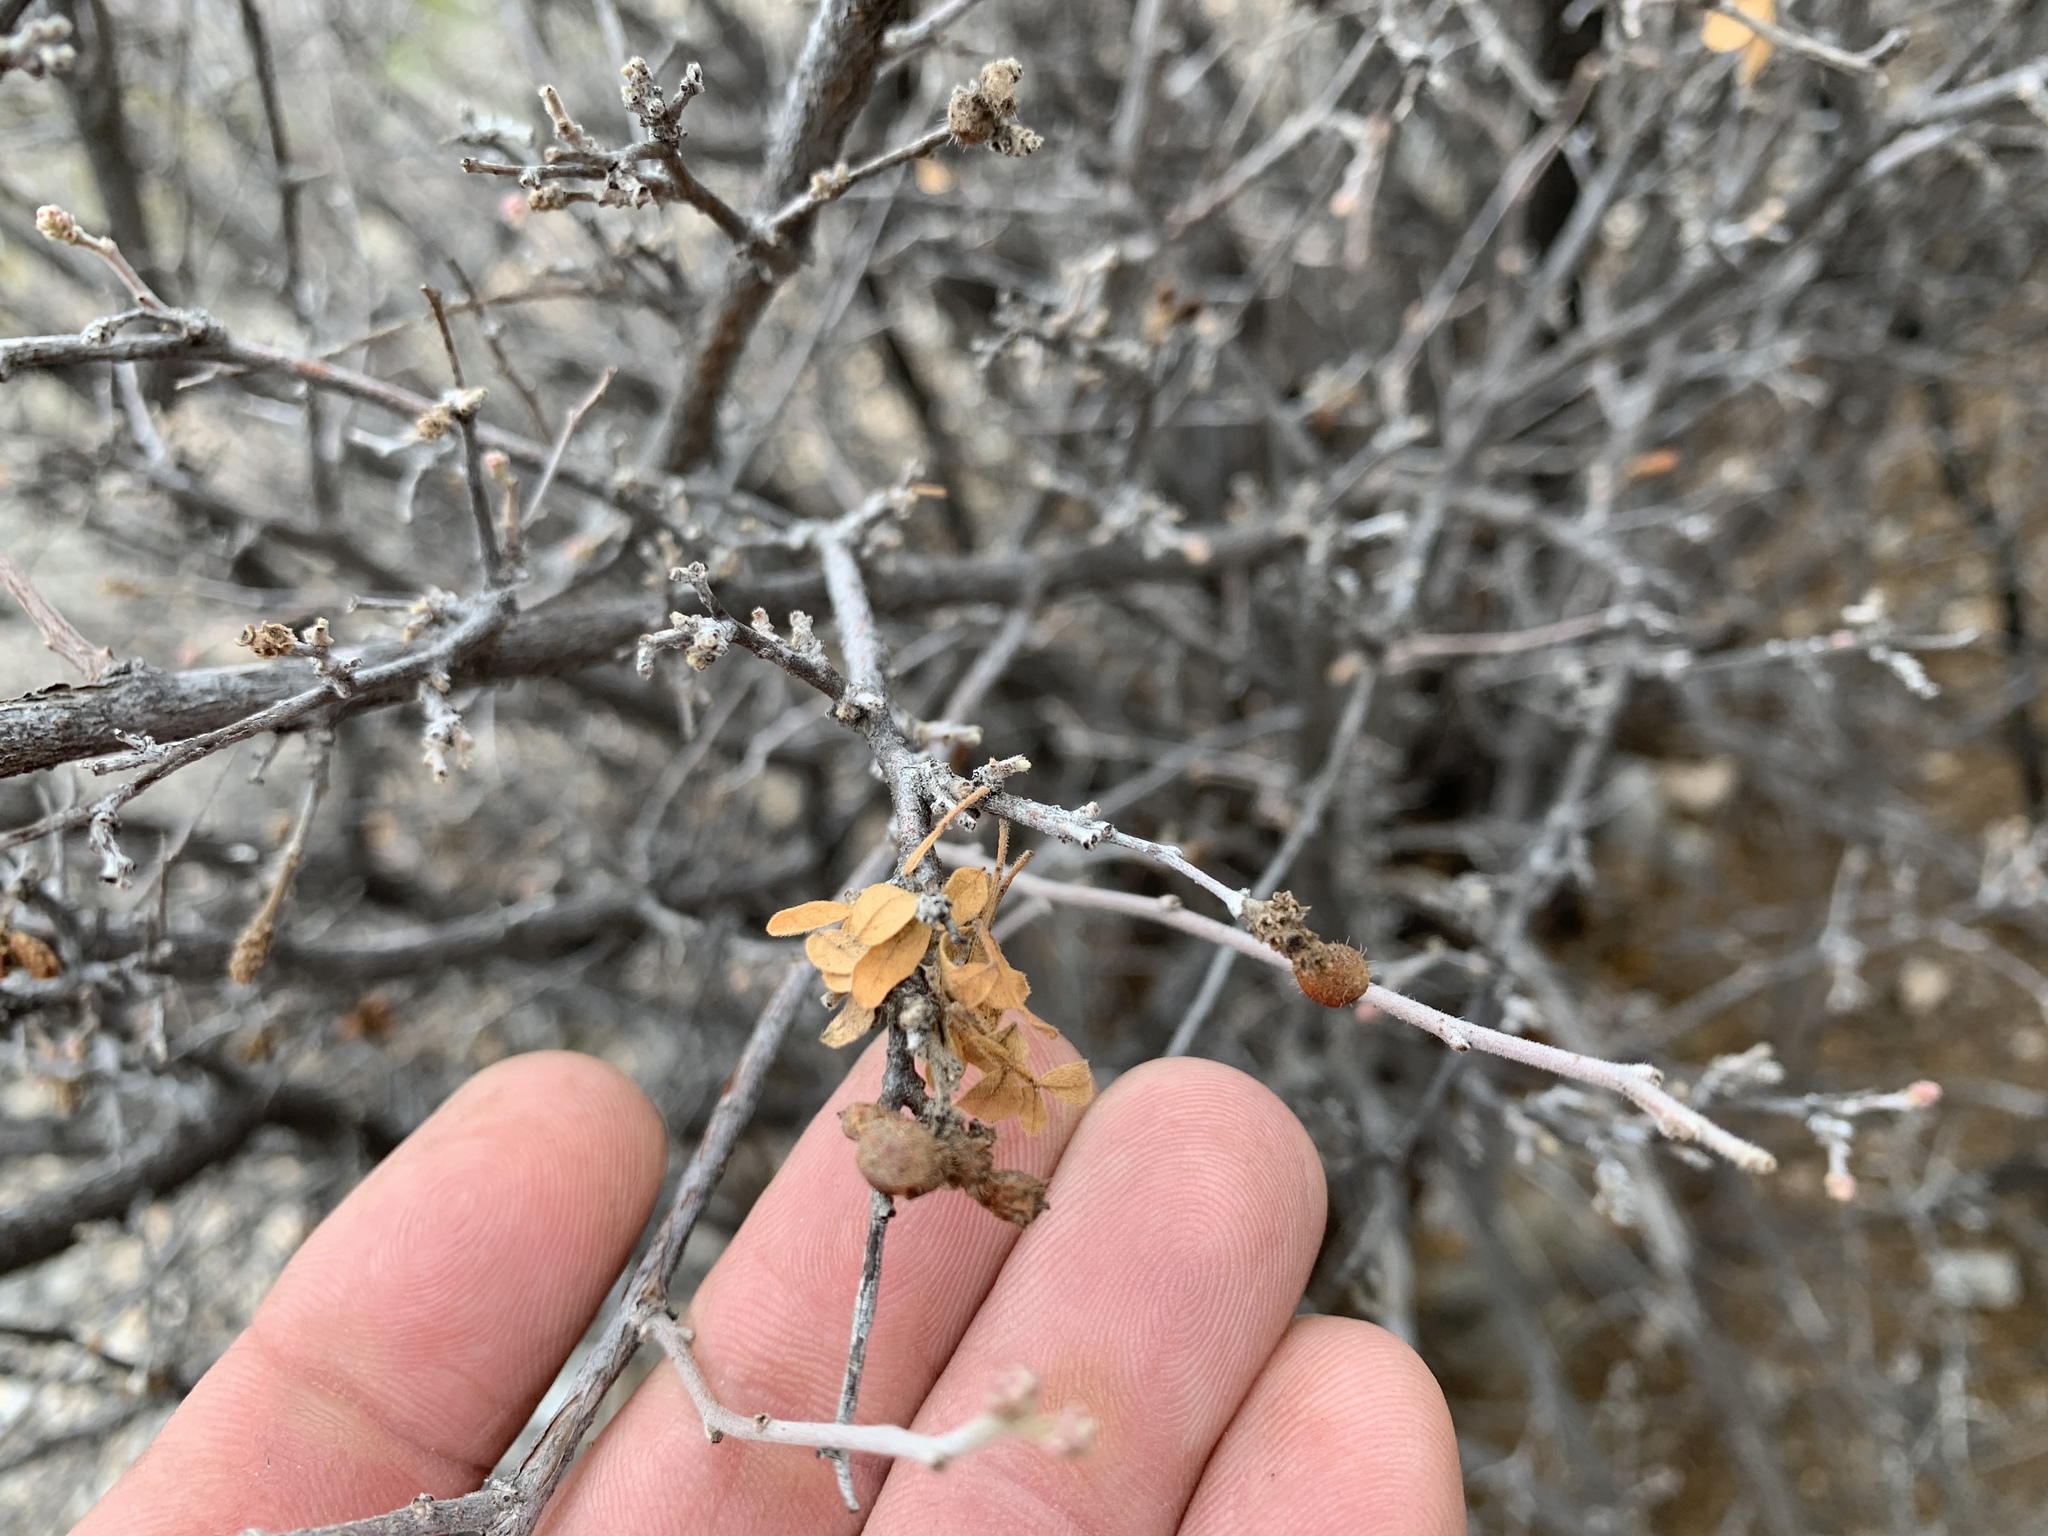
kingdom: Plantae
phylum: Tracheophyta
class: Magnoliopsida
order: Sapindales
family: Anacardiaceae
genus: Rhus
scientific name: Rhus microphylla
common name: Desert sumac
